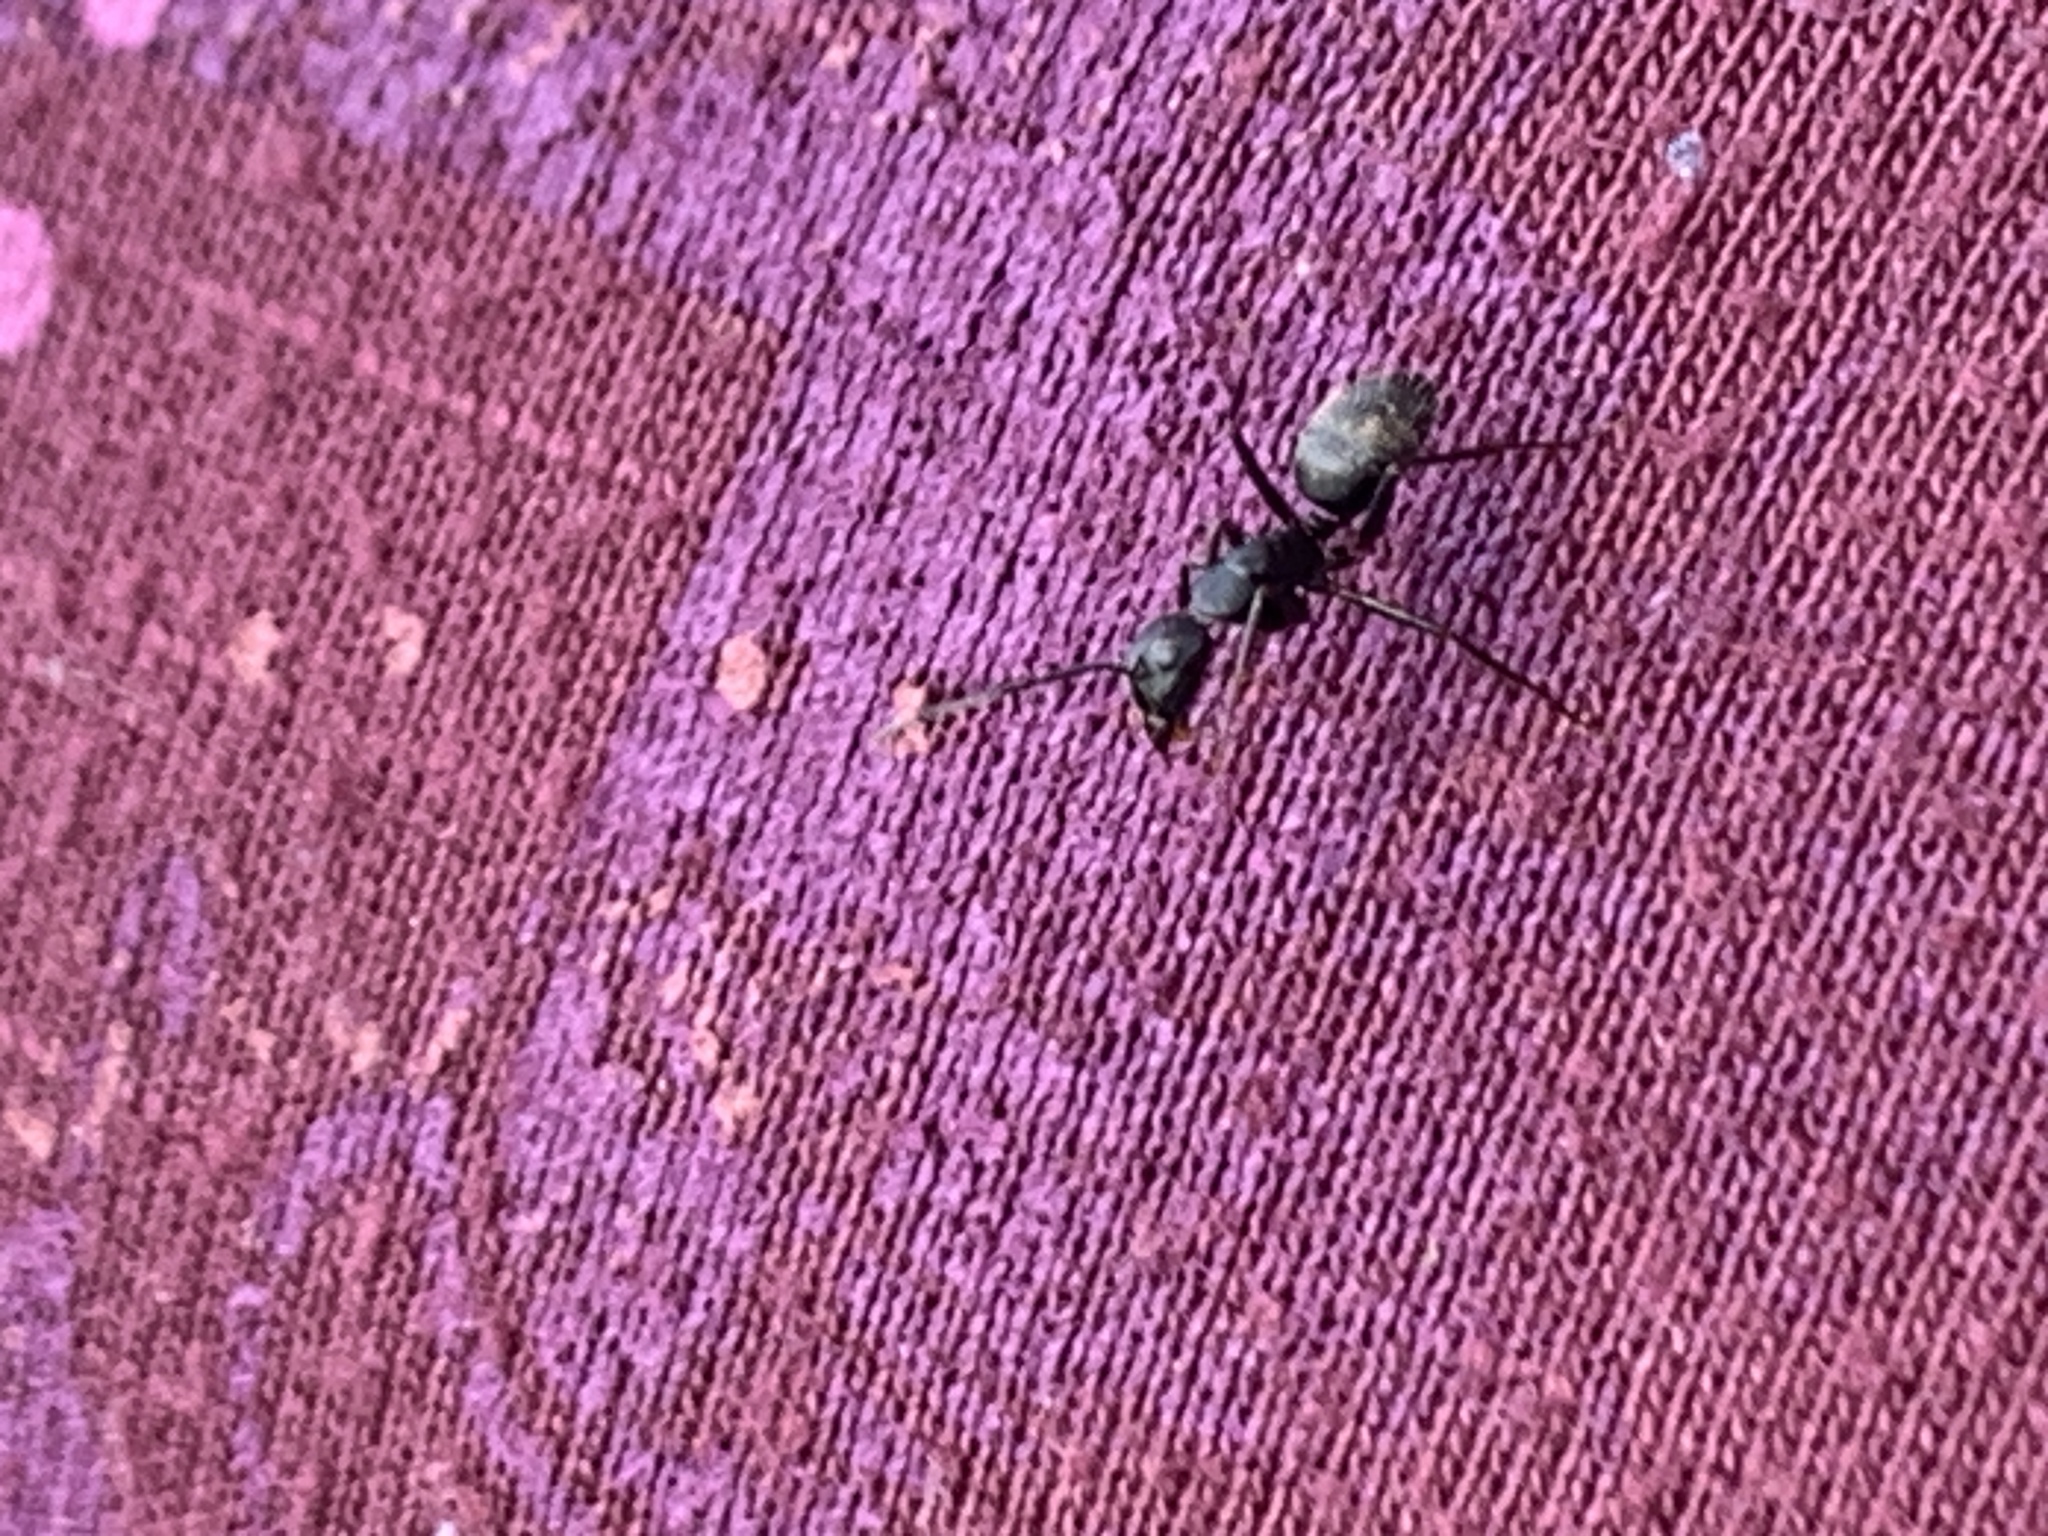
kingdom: Animalia
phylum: Arthropoda
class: Insecta
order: Hymenoptera
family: Formicidae
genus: Camponotus
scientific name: Camponotus pennsylvanicus
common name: Black carpenter ant
